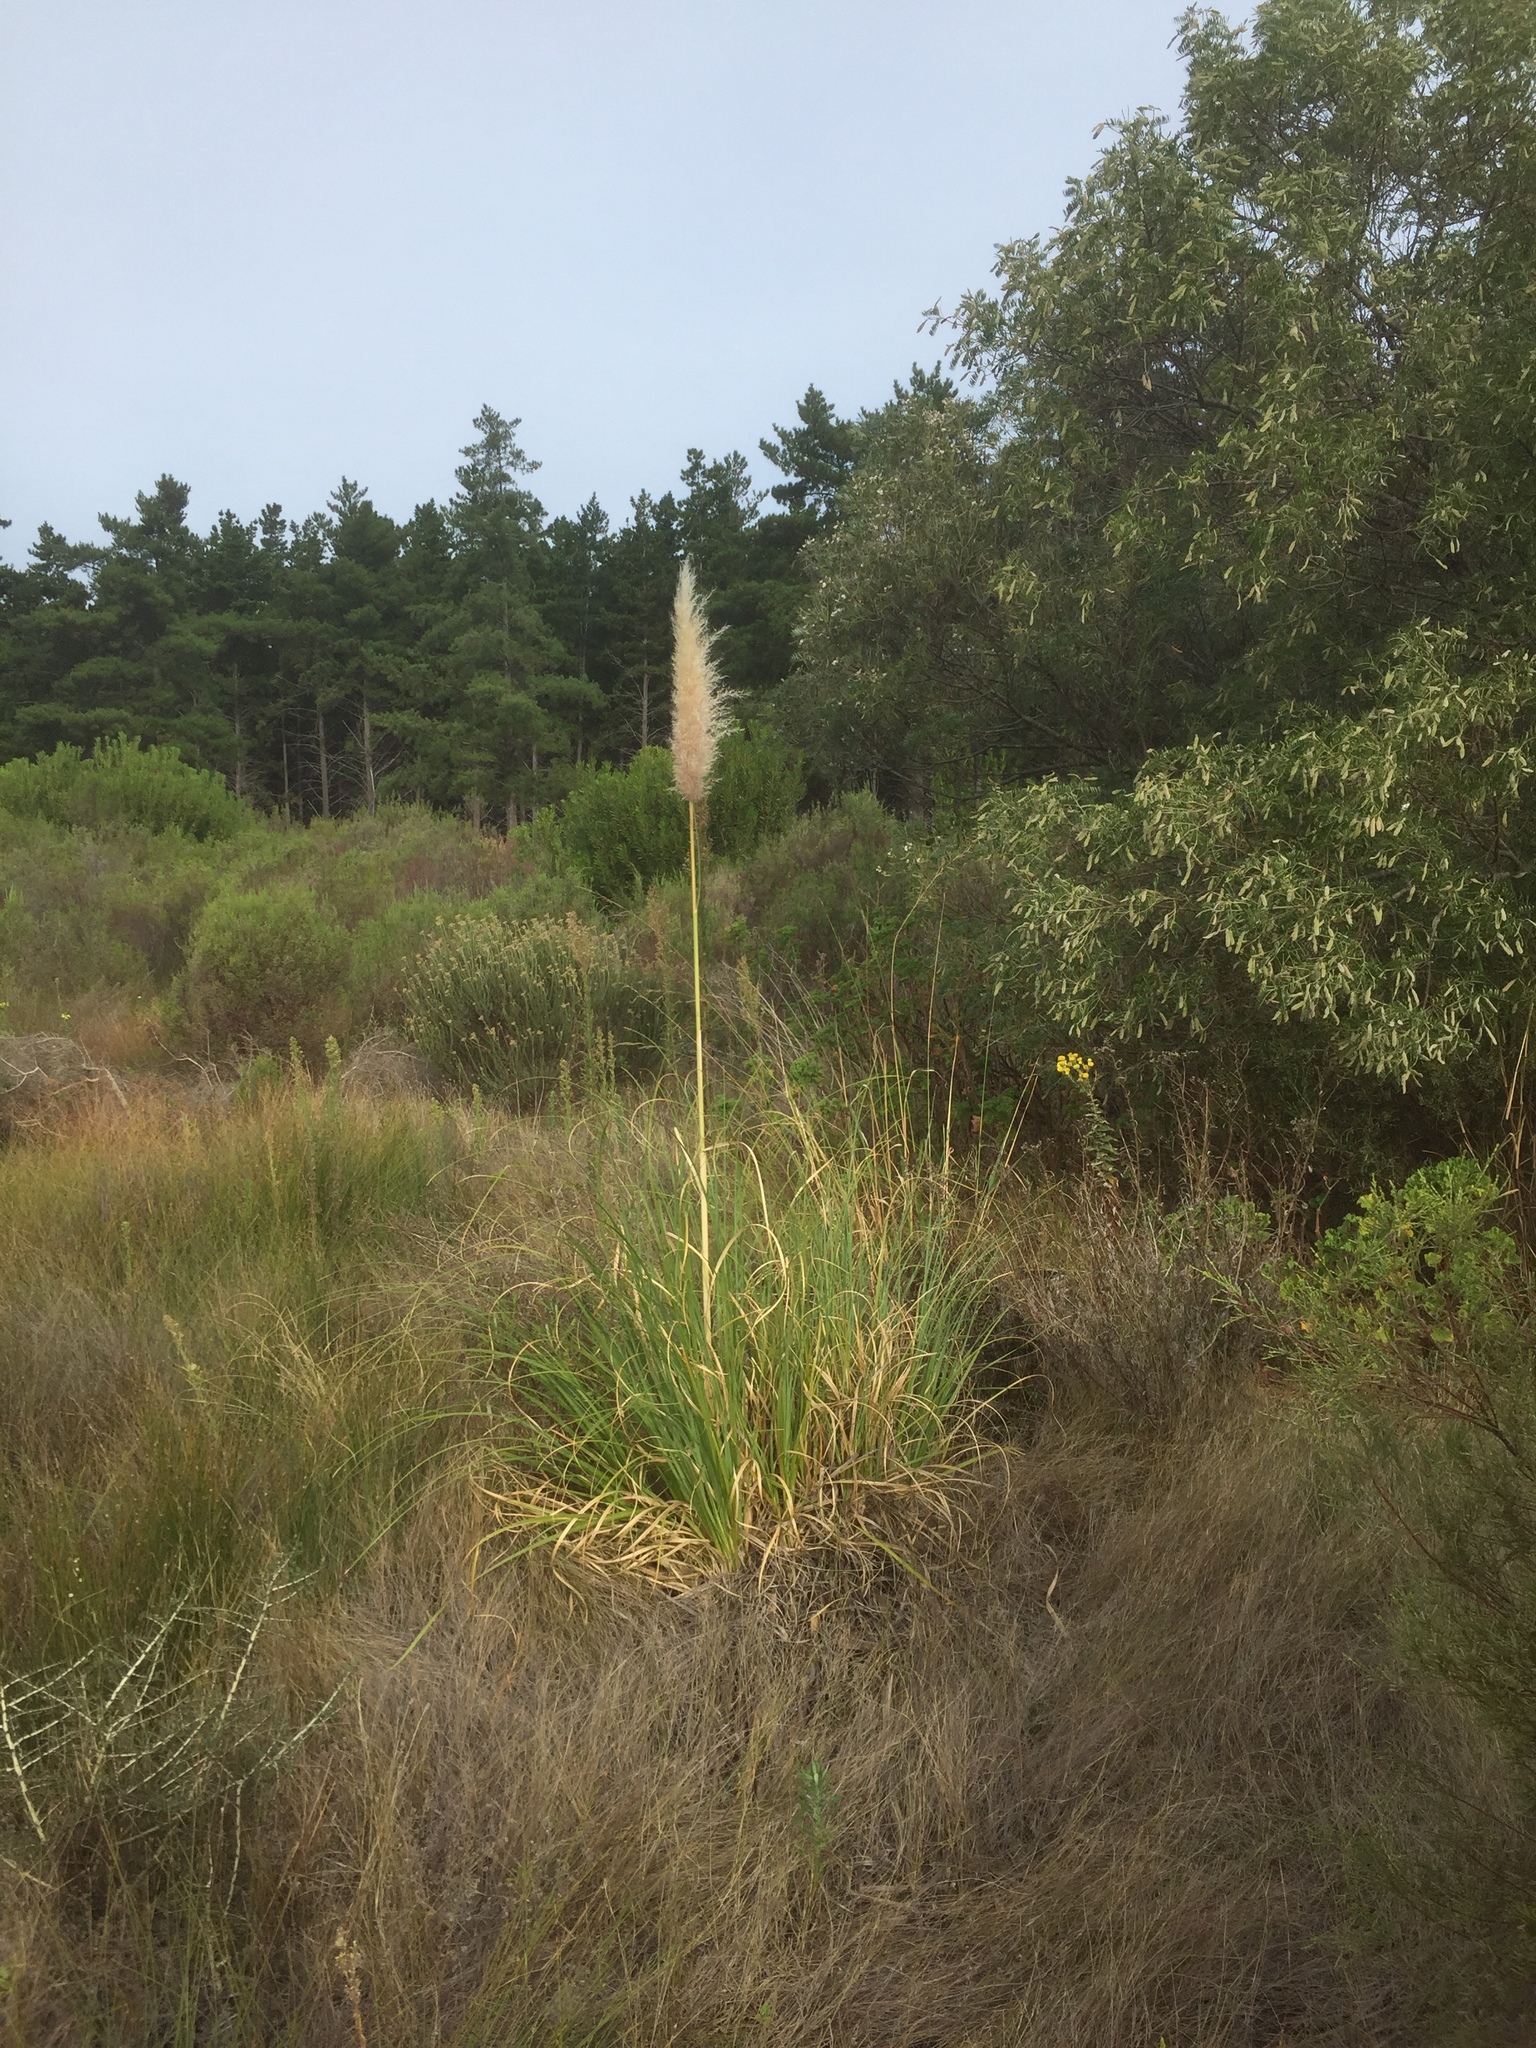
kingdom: Plantae
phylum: Tracheophyta
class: Liliopsida
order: Poales
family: Poaceae
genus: Cortaderia
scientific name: Cortaderia selloana
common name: Uruguayan pampas grass
